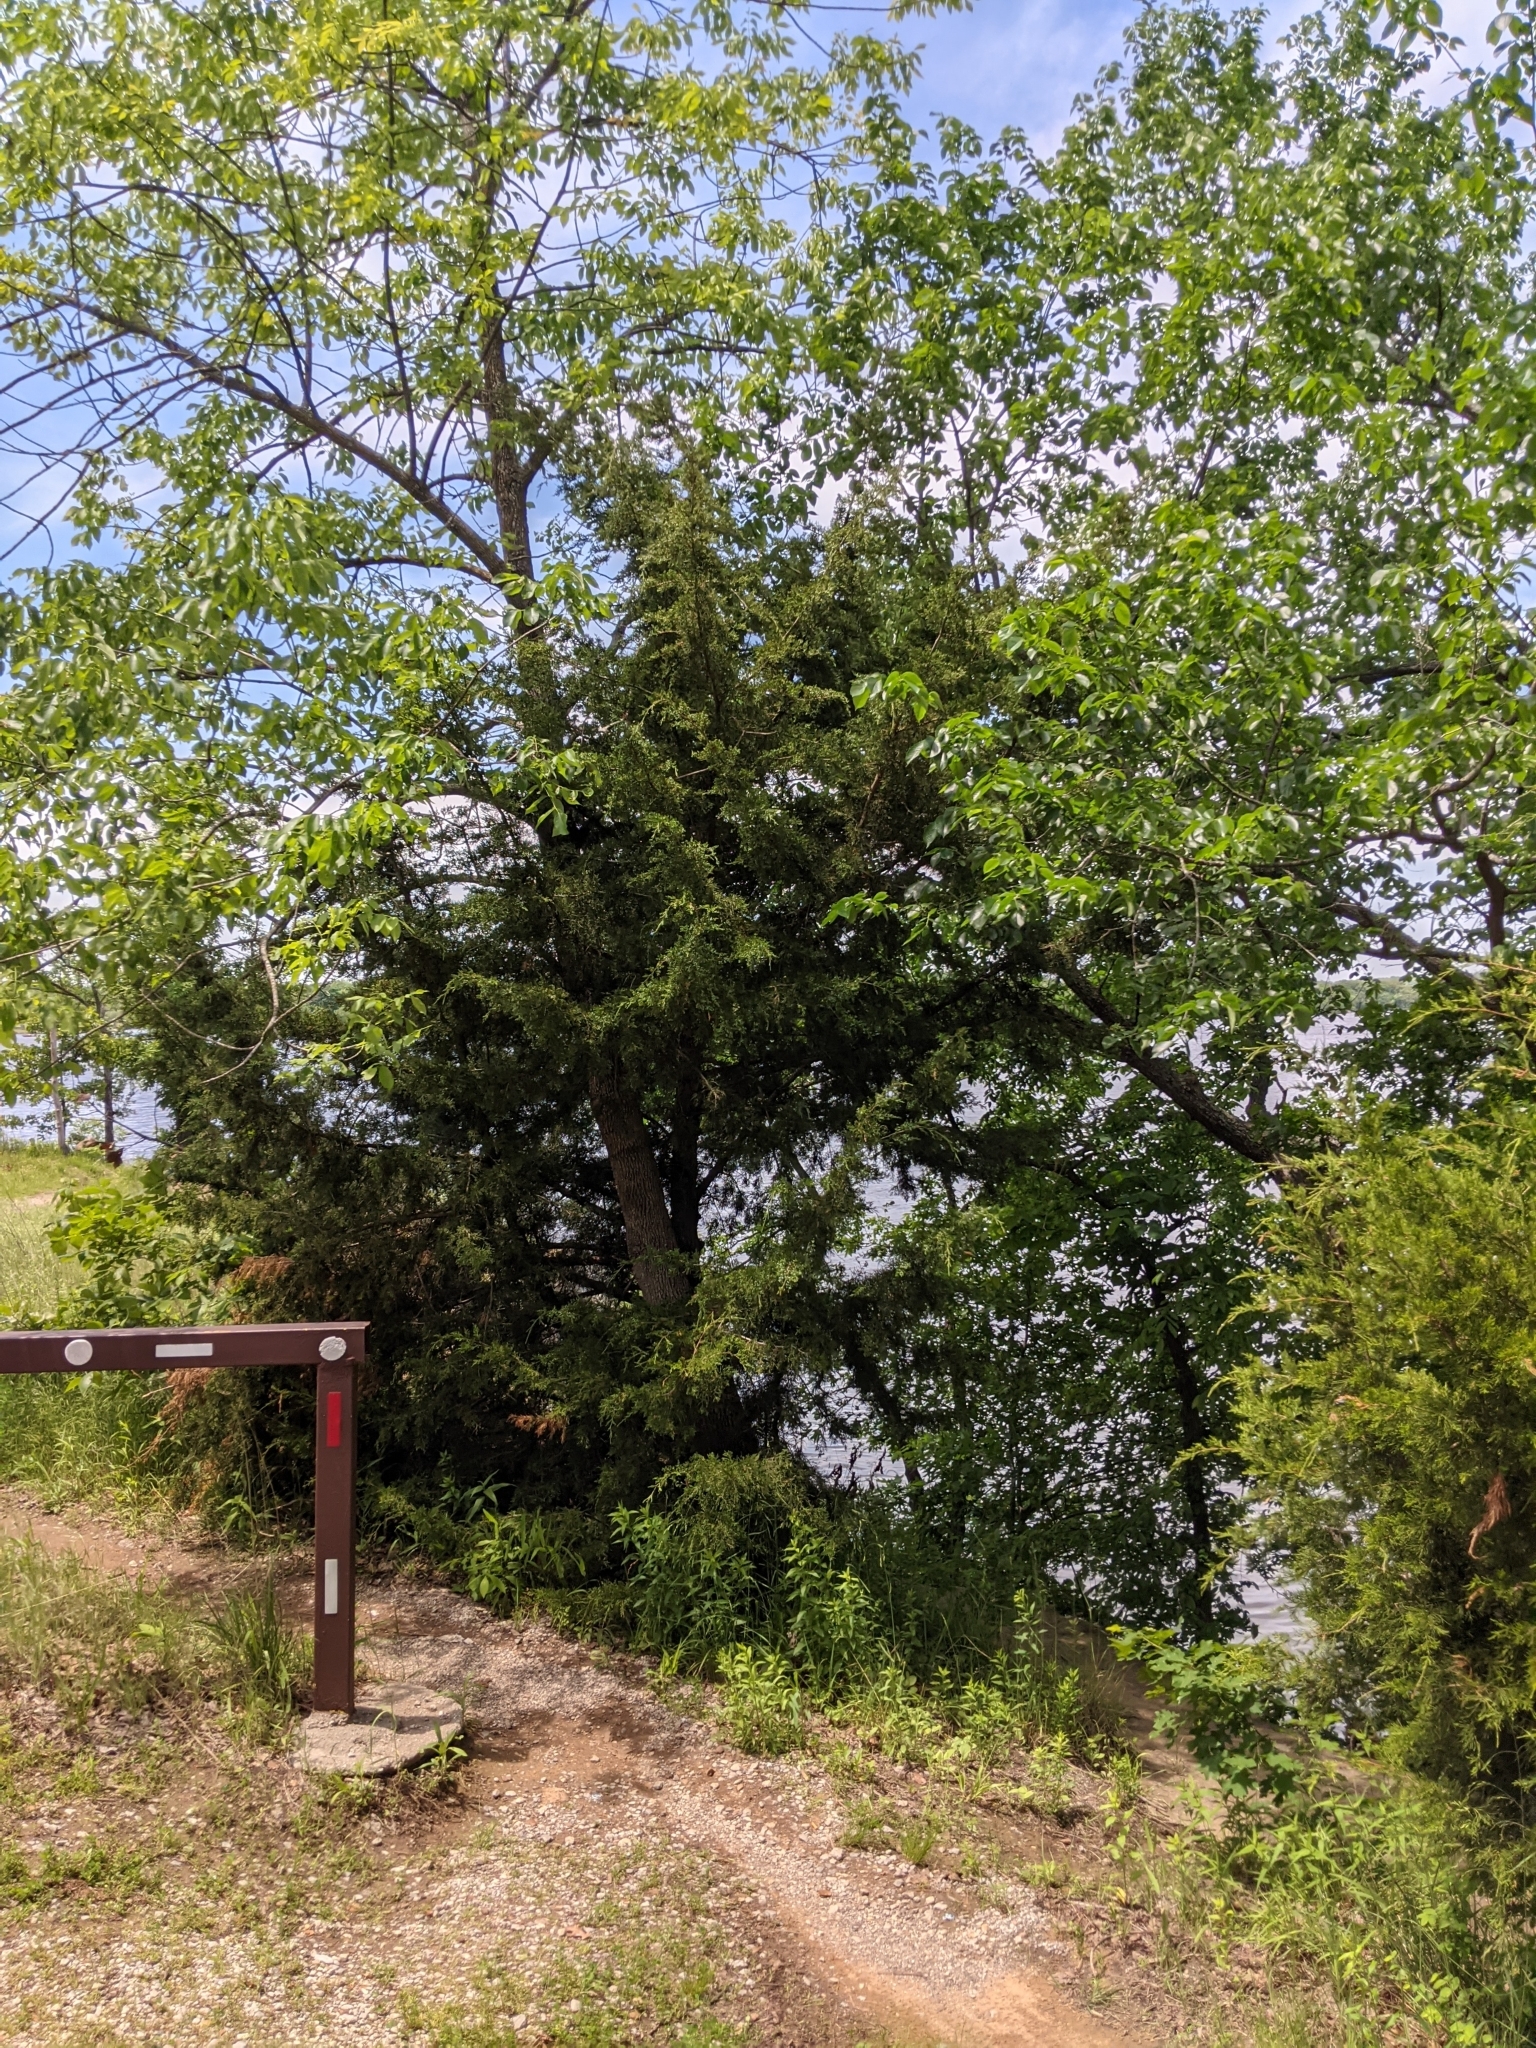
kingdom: Plantae
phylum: Tracheophyta
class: Pinopsida
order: Pinales
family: Cupressaceae
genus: Juniperus
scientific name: Juniperus virginiana
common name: Red juniper
